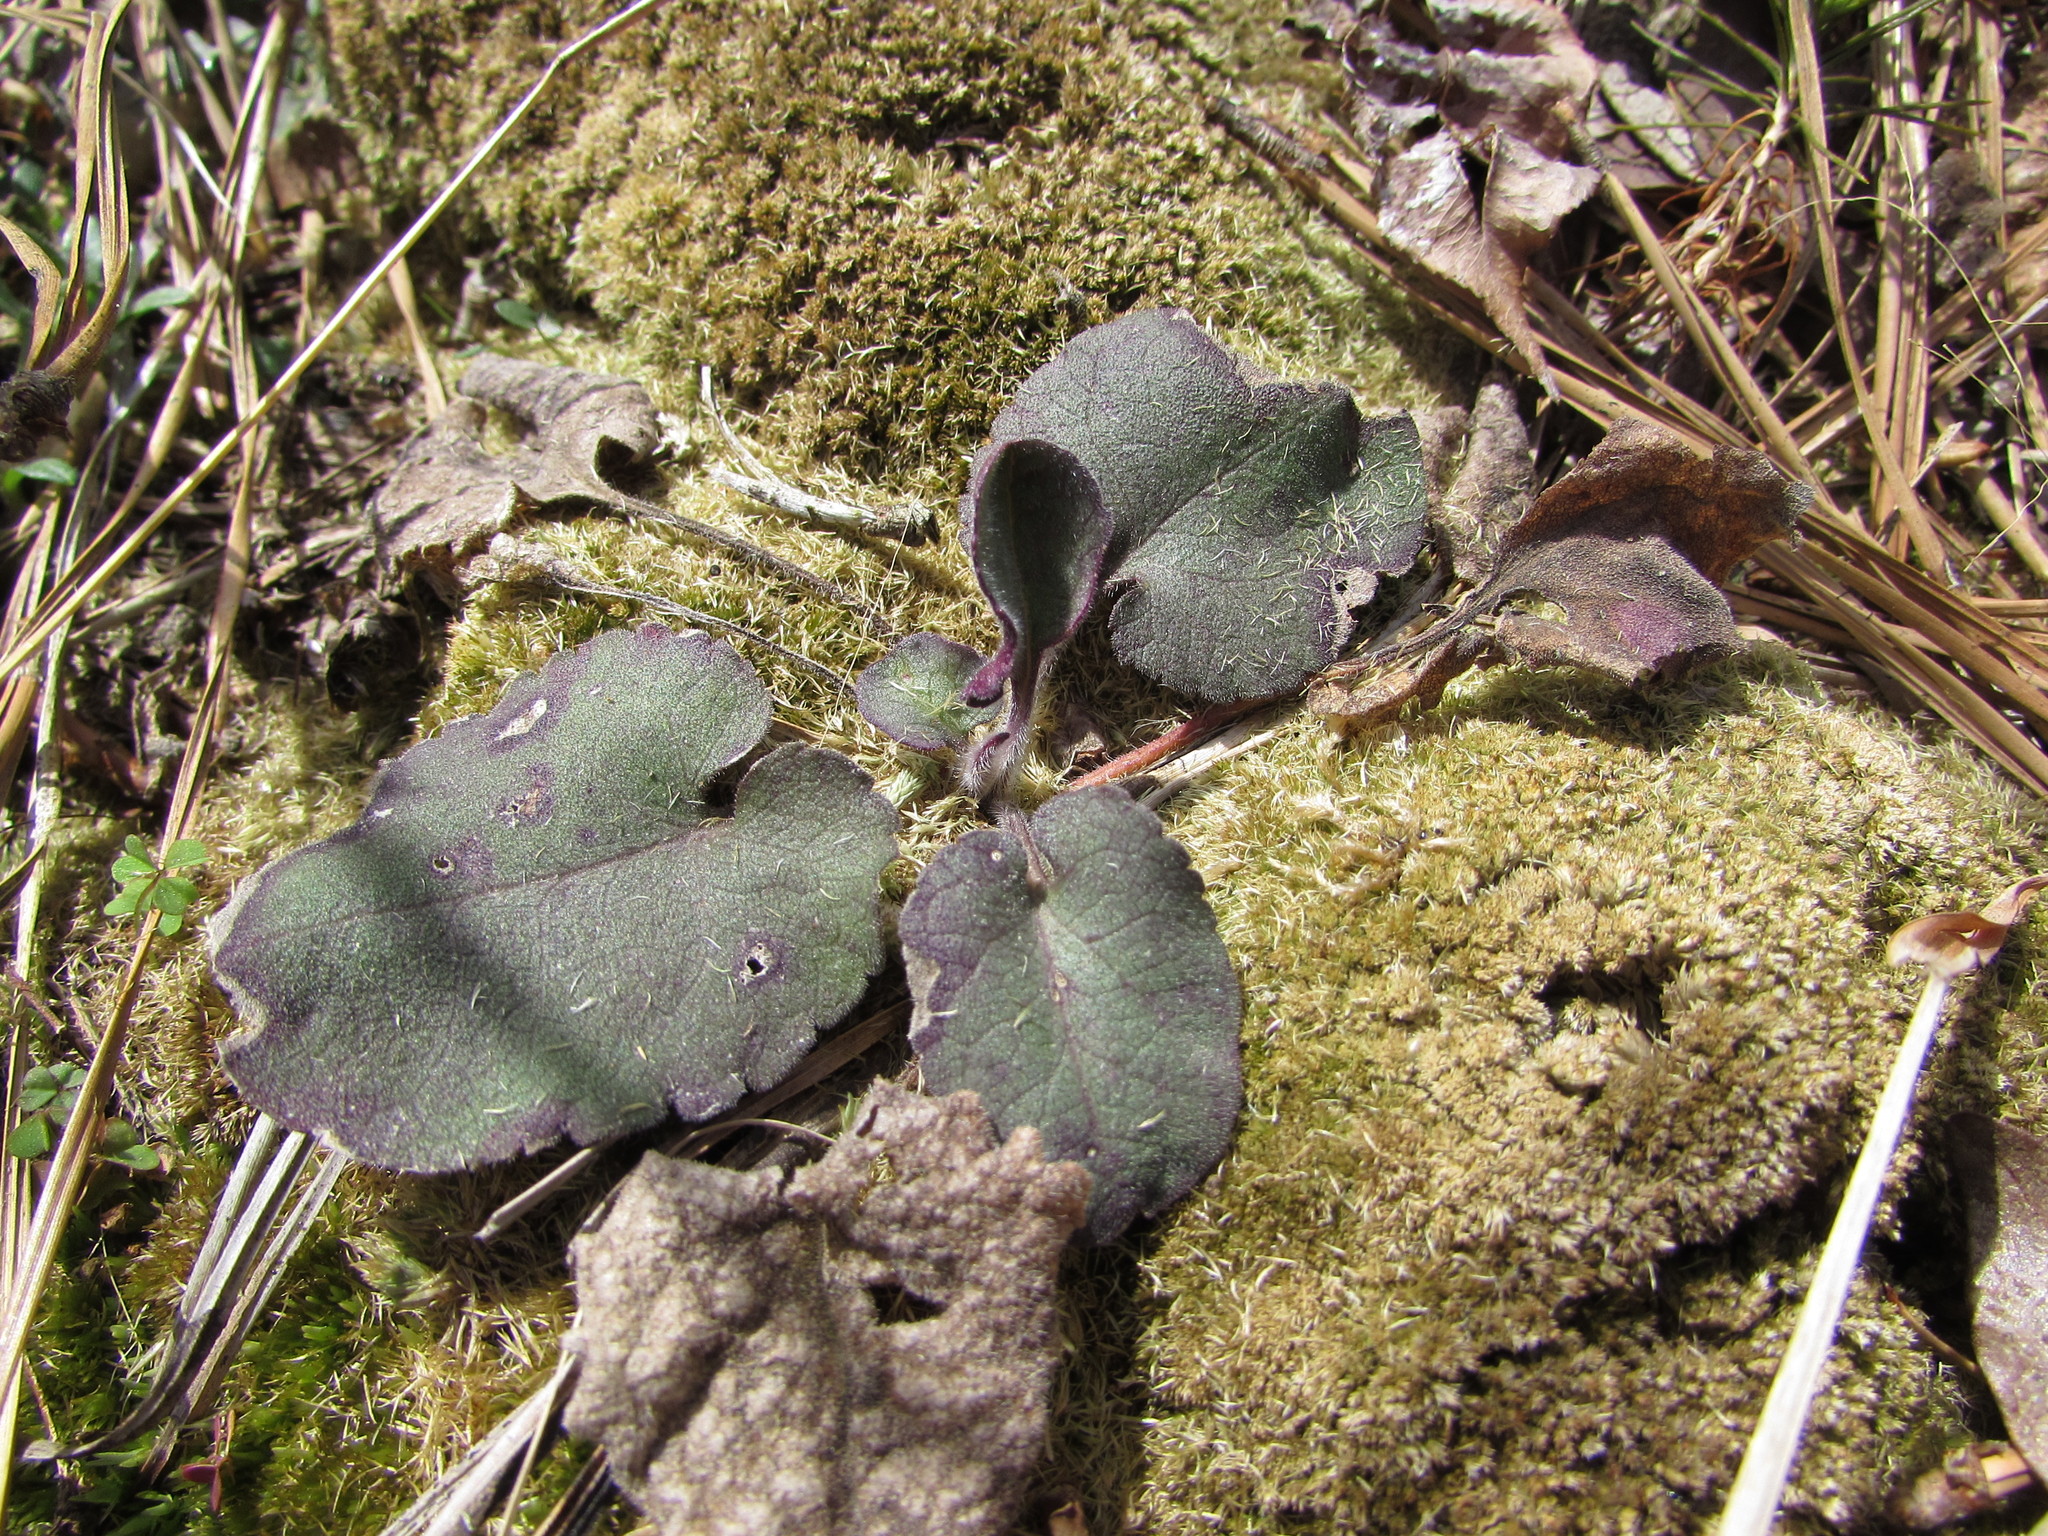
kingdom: Plantae
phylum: Tracheophyta
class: Magnoliopsida
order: Ericales
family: Ericaceae
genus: Epigaea
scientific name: Epigaea repens
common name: Gravelroot
